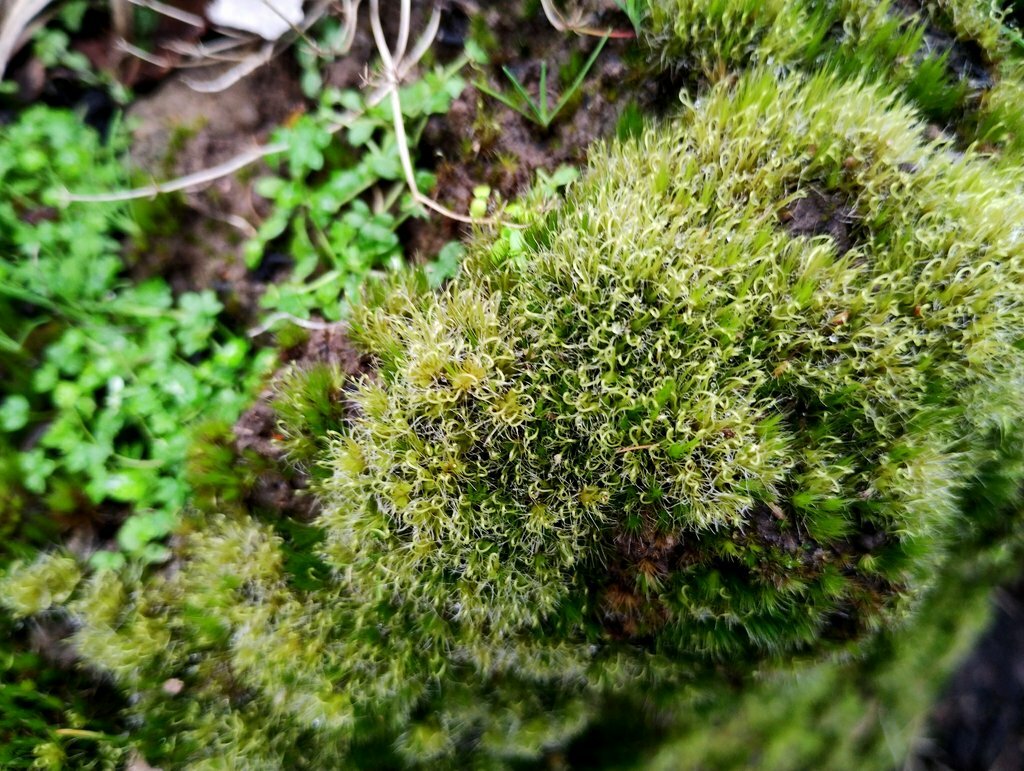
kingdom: Plantae
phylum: Bryophyta
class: Bryopsida
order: Dicranales
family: Leucobryaceae
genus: Campylopus
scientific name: Campylopus introflexus
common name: Heath star moss
